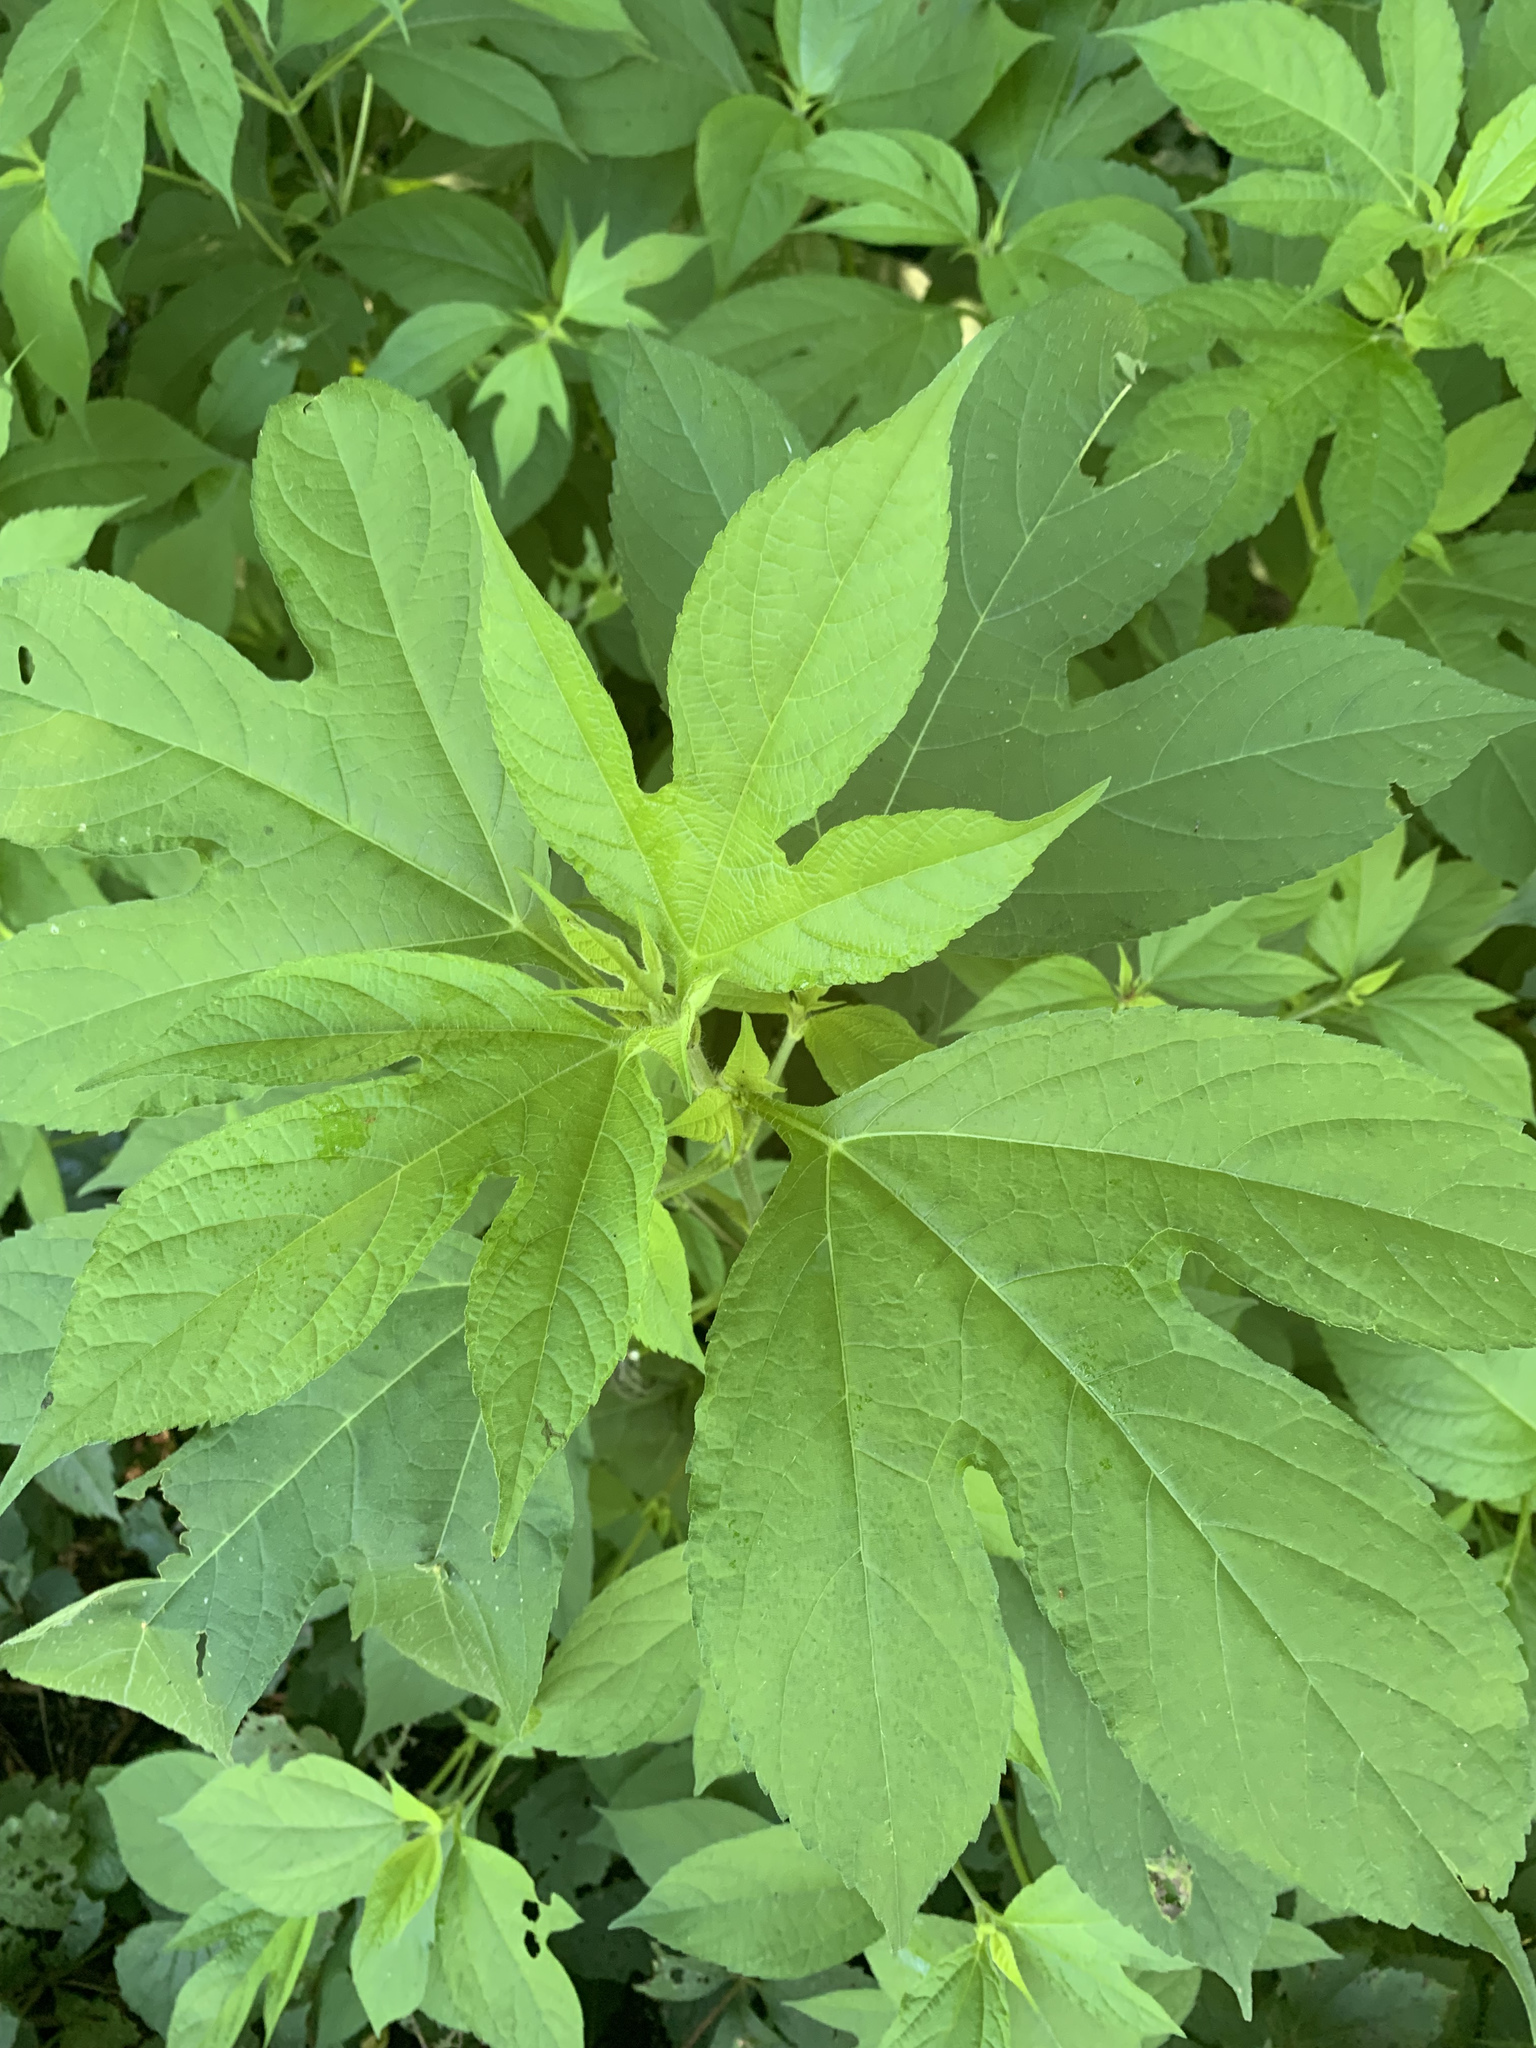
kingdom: Plantae
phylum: Tracheophyta
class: Magnoliopsida
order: Asterales
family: Asteraceae
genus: Ambrosia
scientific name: Ambrosia trifida
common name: Giant ragweed
